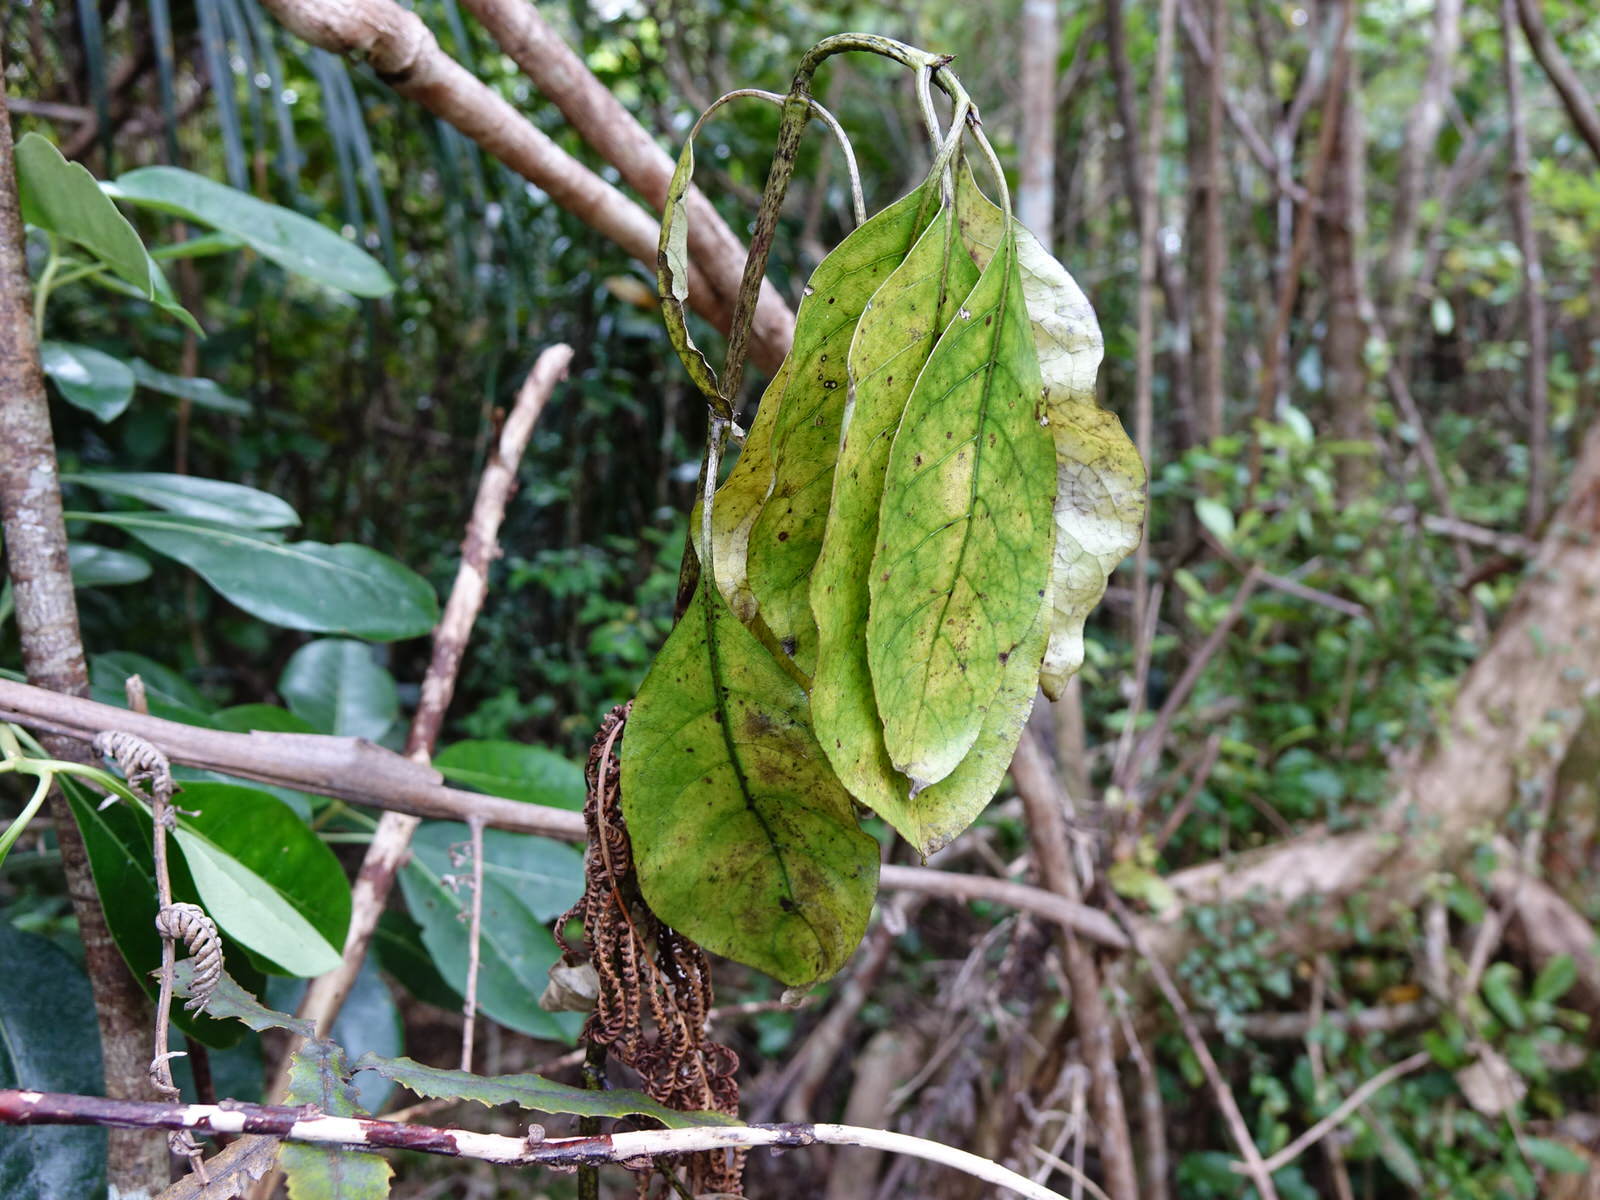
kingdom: Plantae
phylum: Tracheophyta
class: Magnoliopsida
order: Gentianales
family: Rubiaceae
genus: Coprosma
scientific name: Coprosma autumnalis
